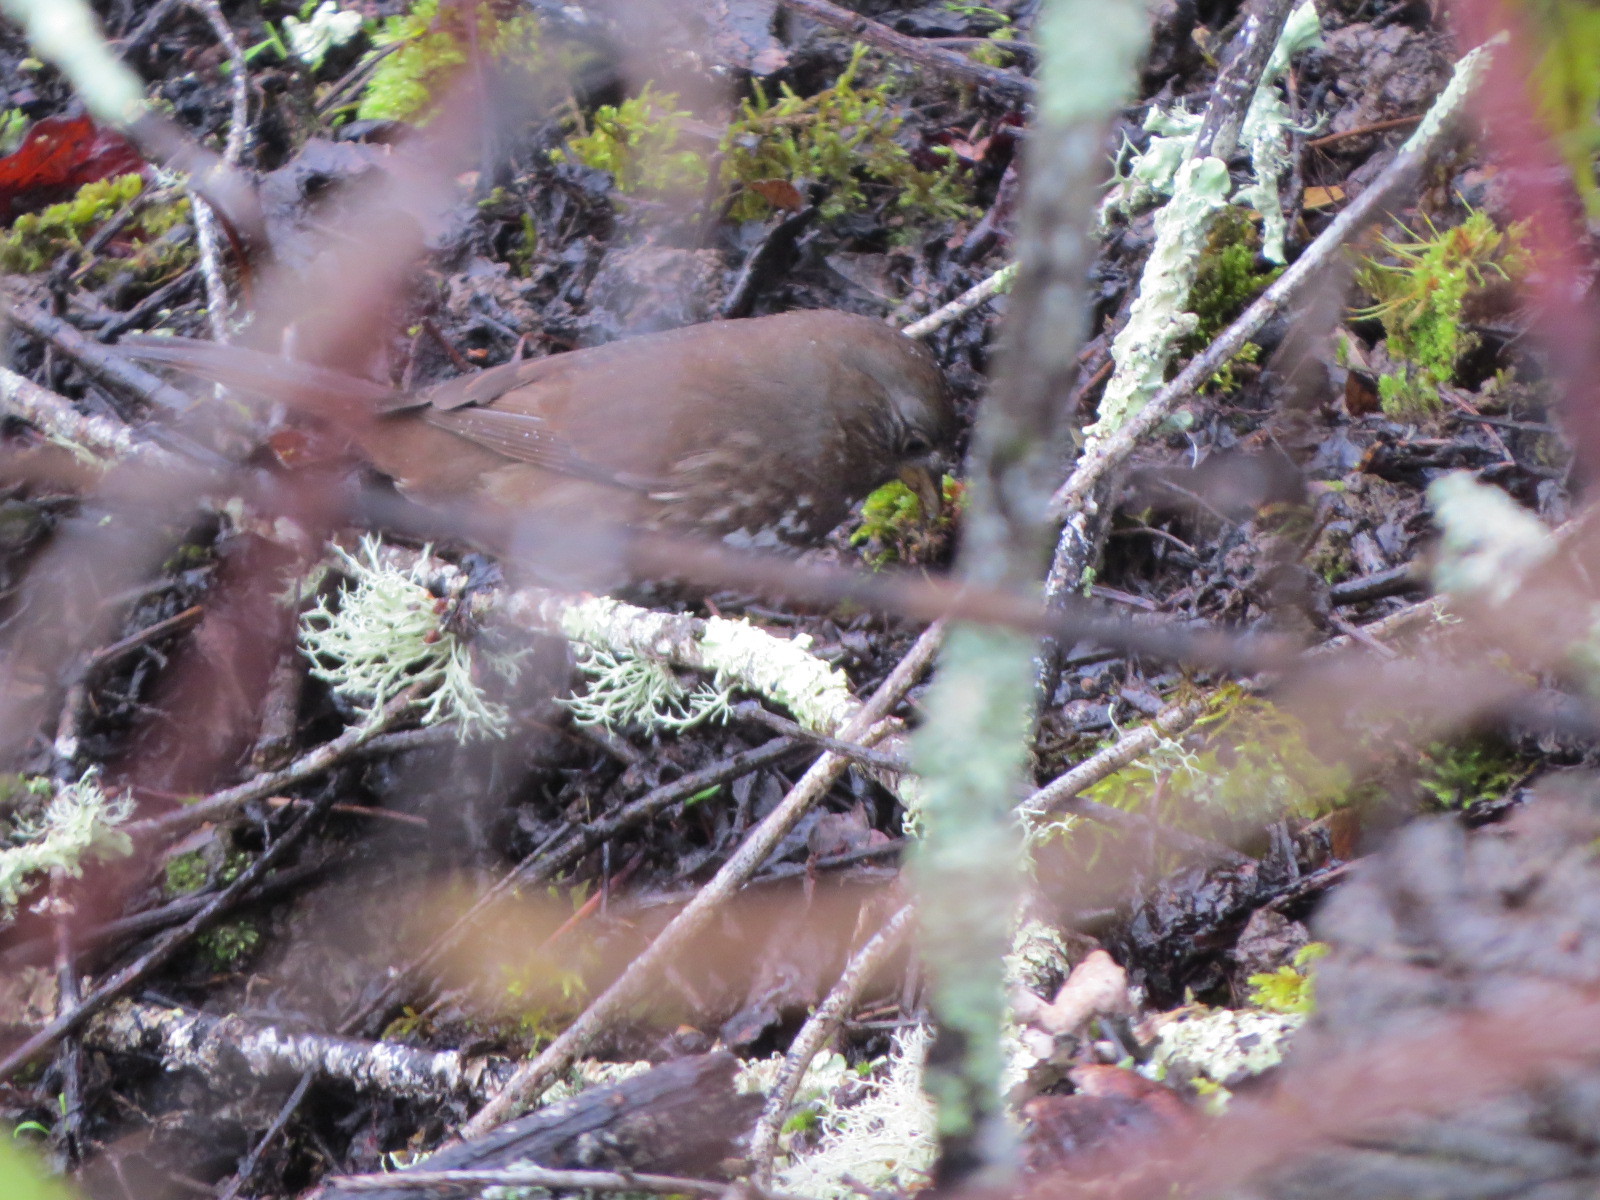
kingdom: Animalia
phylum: Chordata
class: Aves
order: Passeriformes
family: Passerellidae
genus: Passerella
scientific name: Passerella iliaca
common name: Fox sparrow
